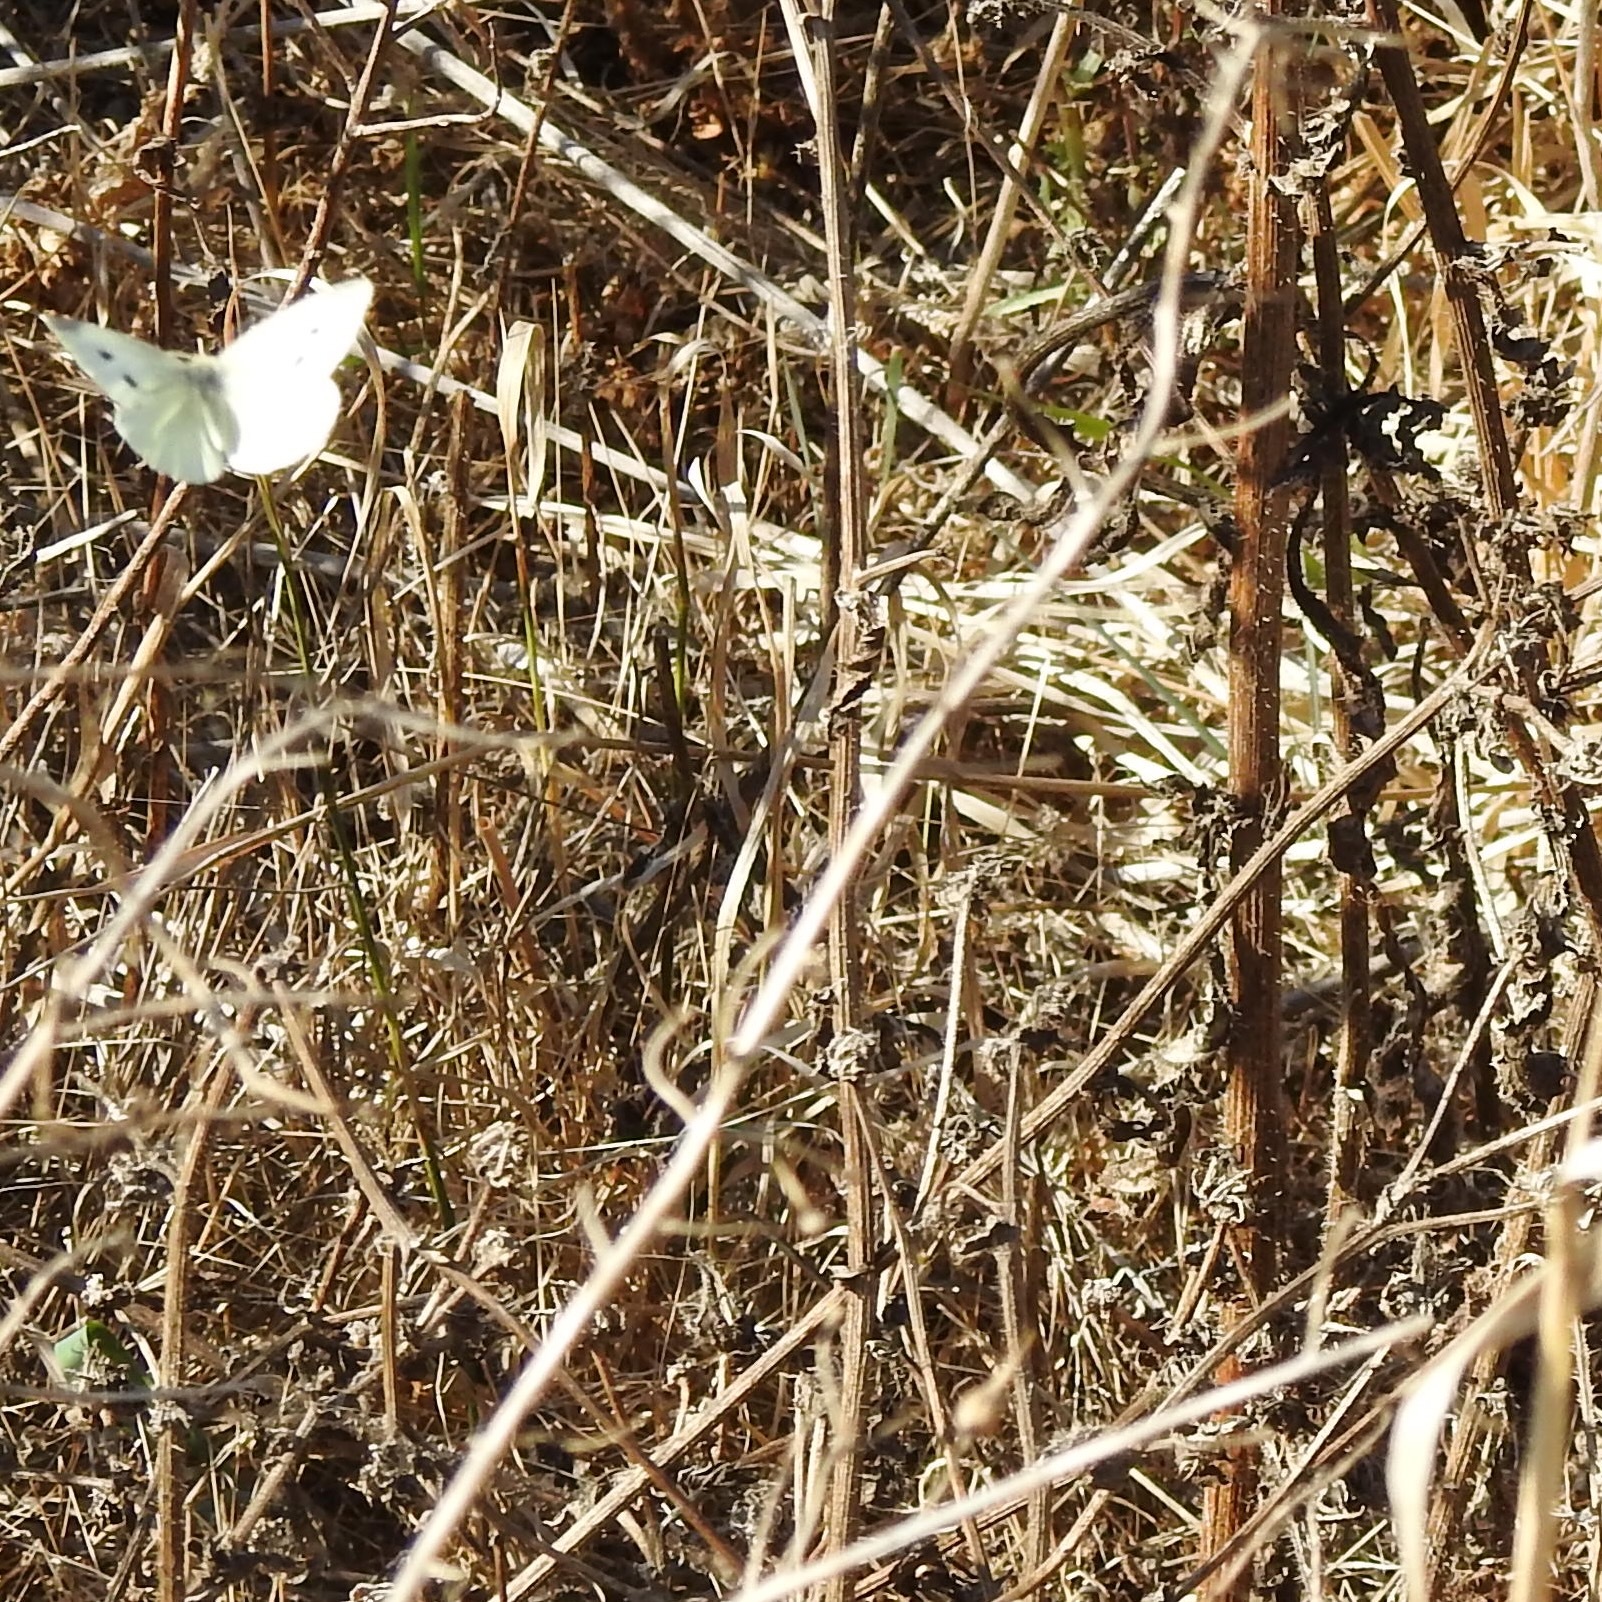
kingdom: Animalia
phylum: Arthropoda
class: Insecta
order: Lepidoptera
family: Pieridae
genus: Pieris
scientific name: Pieris rapae
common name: Small white
